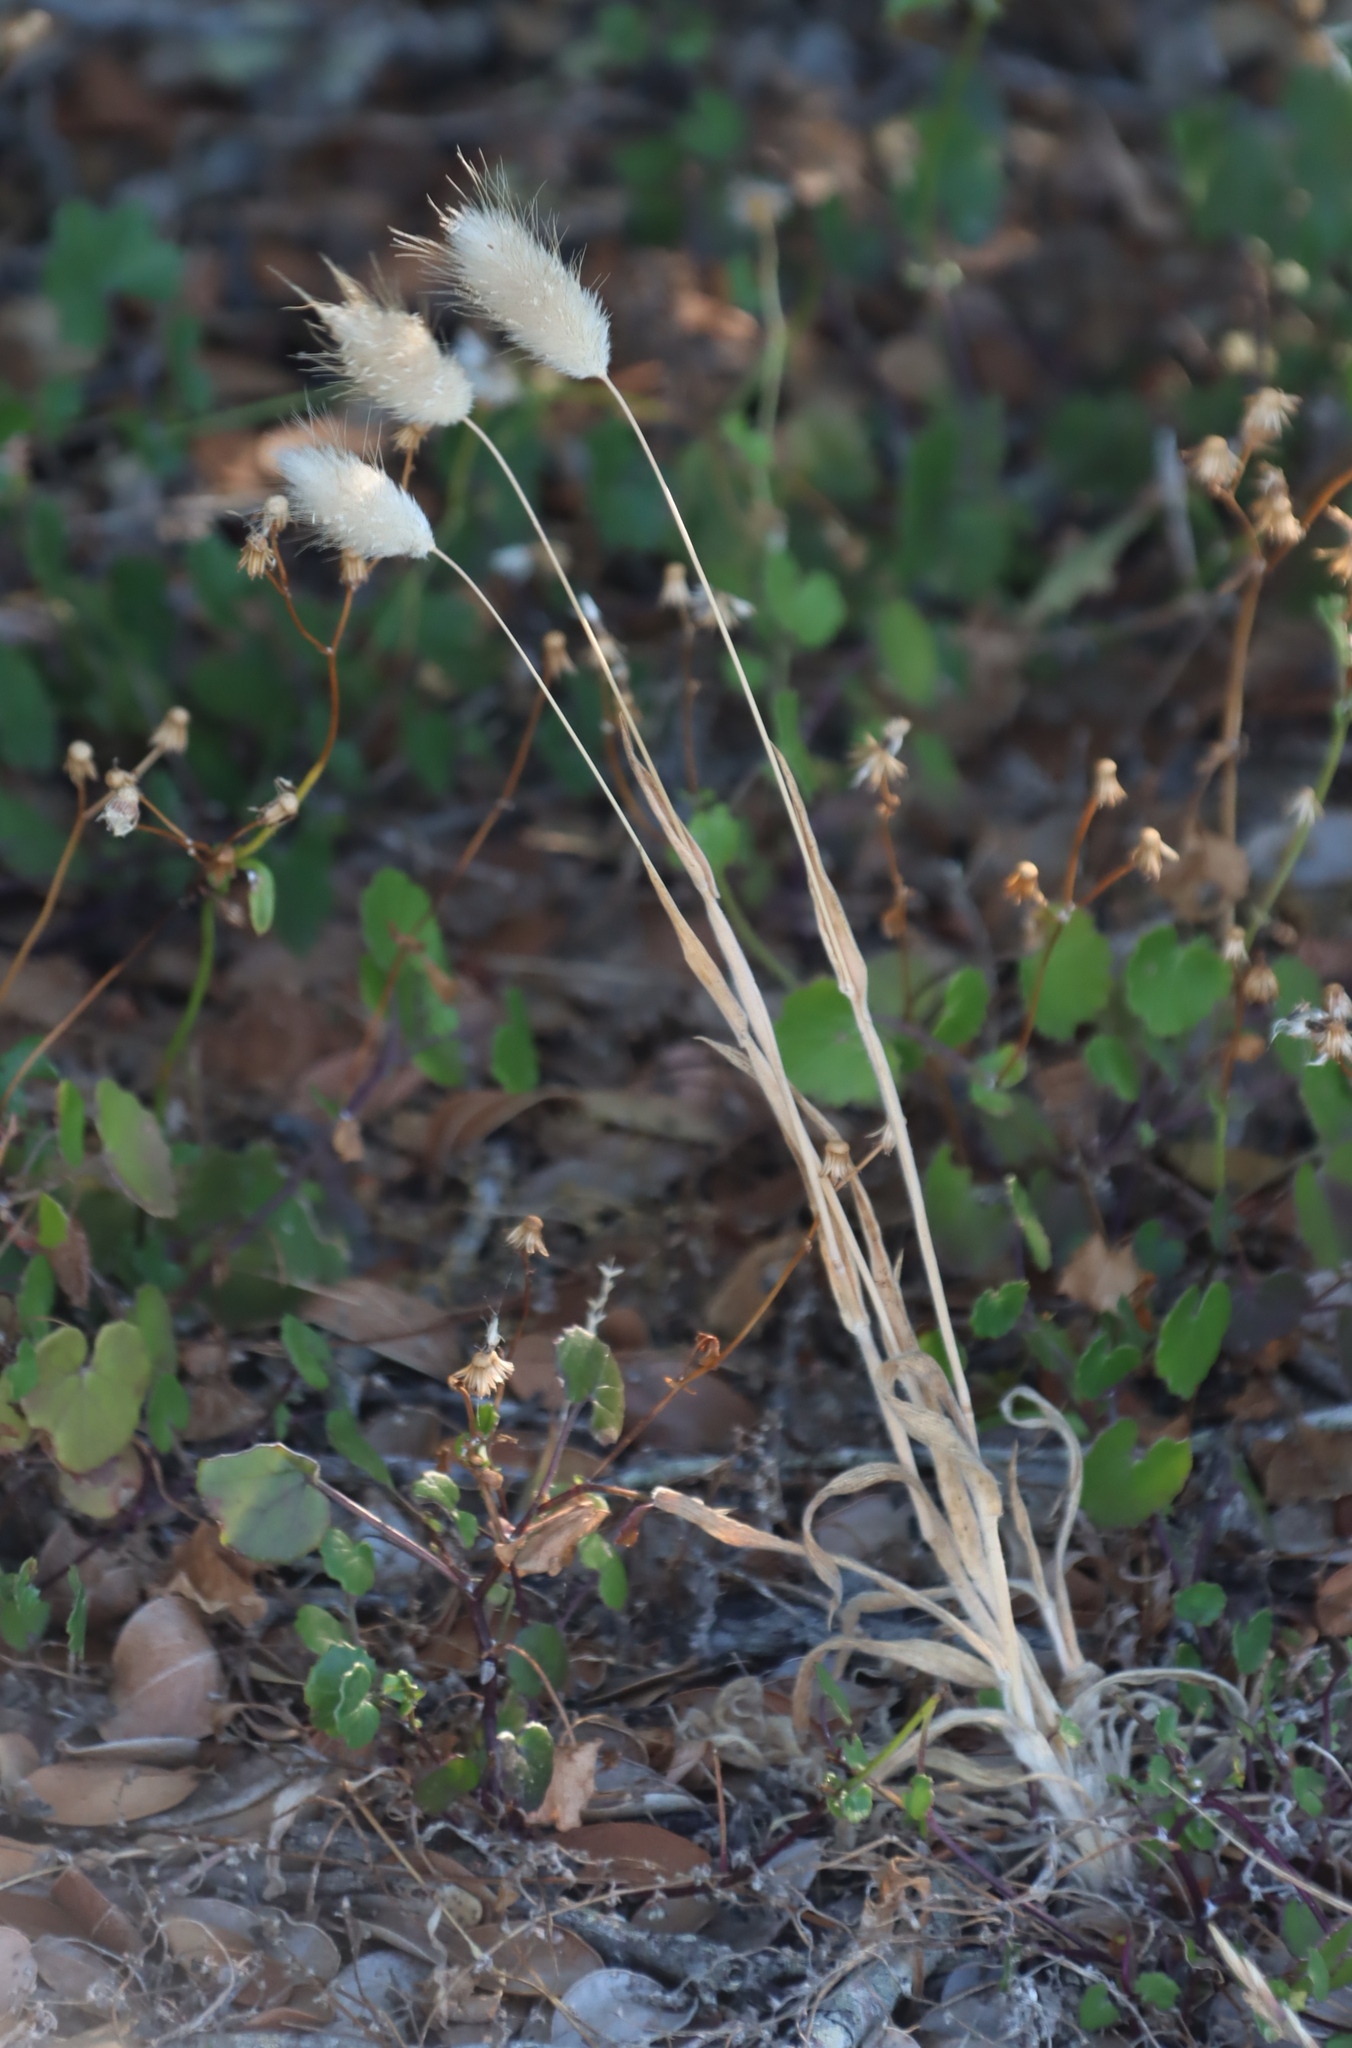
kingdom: Plantae
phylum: Tracheophyta
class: Liliopsida
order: Poales
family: Poaceae
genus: Lagurus
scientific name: Lagurus ovatus
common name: Hare's-tail
